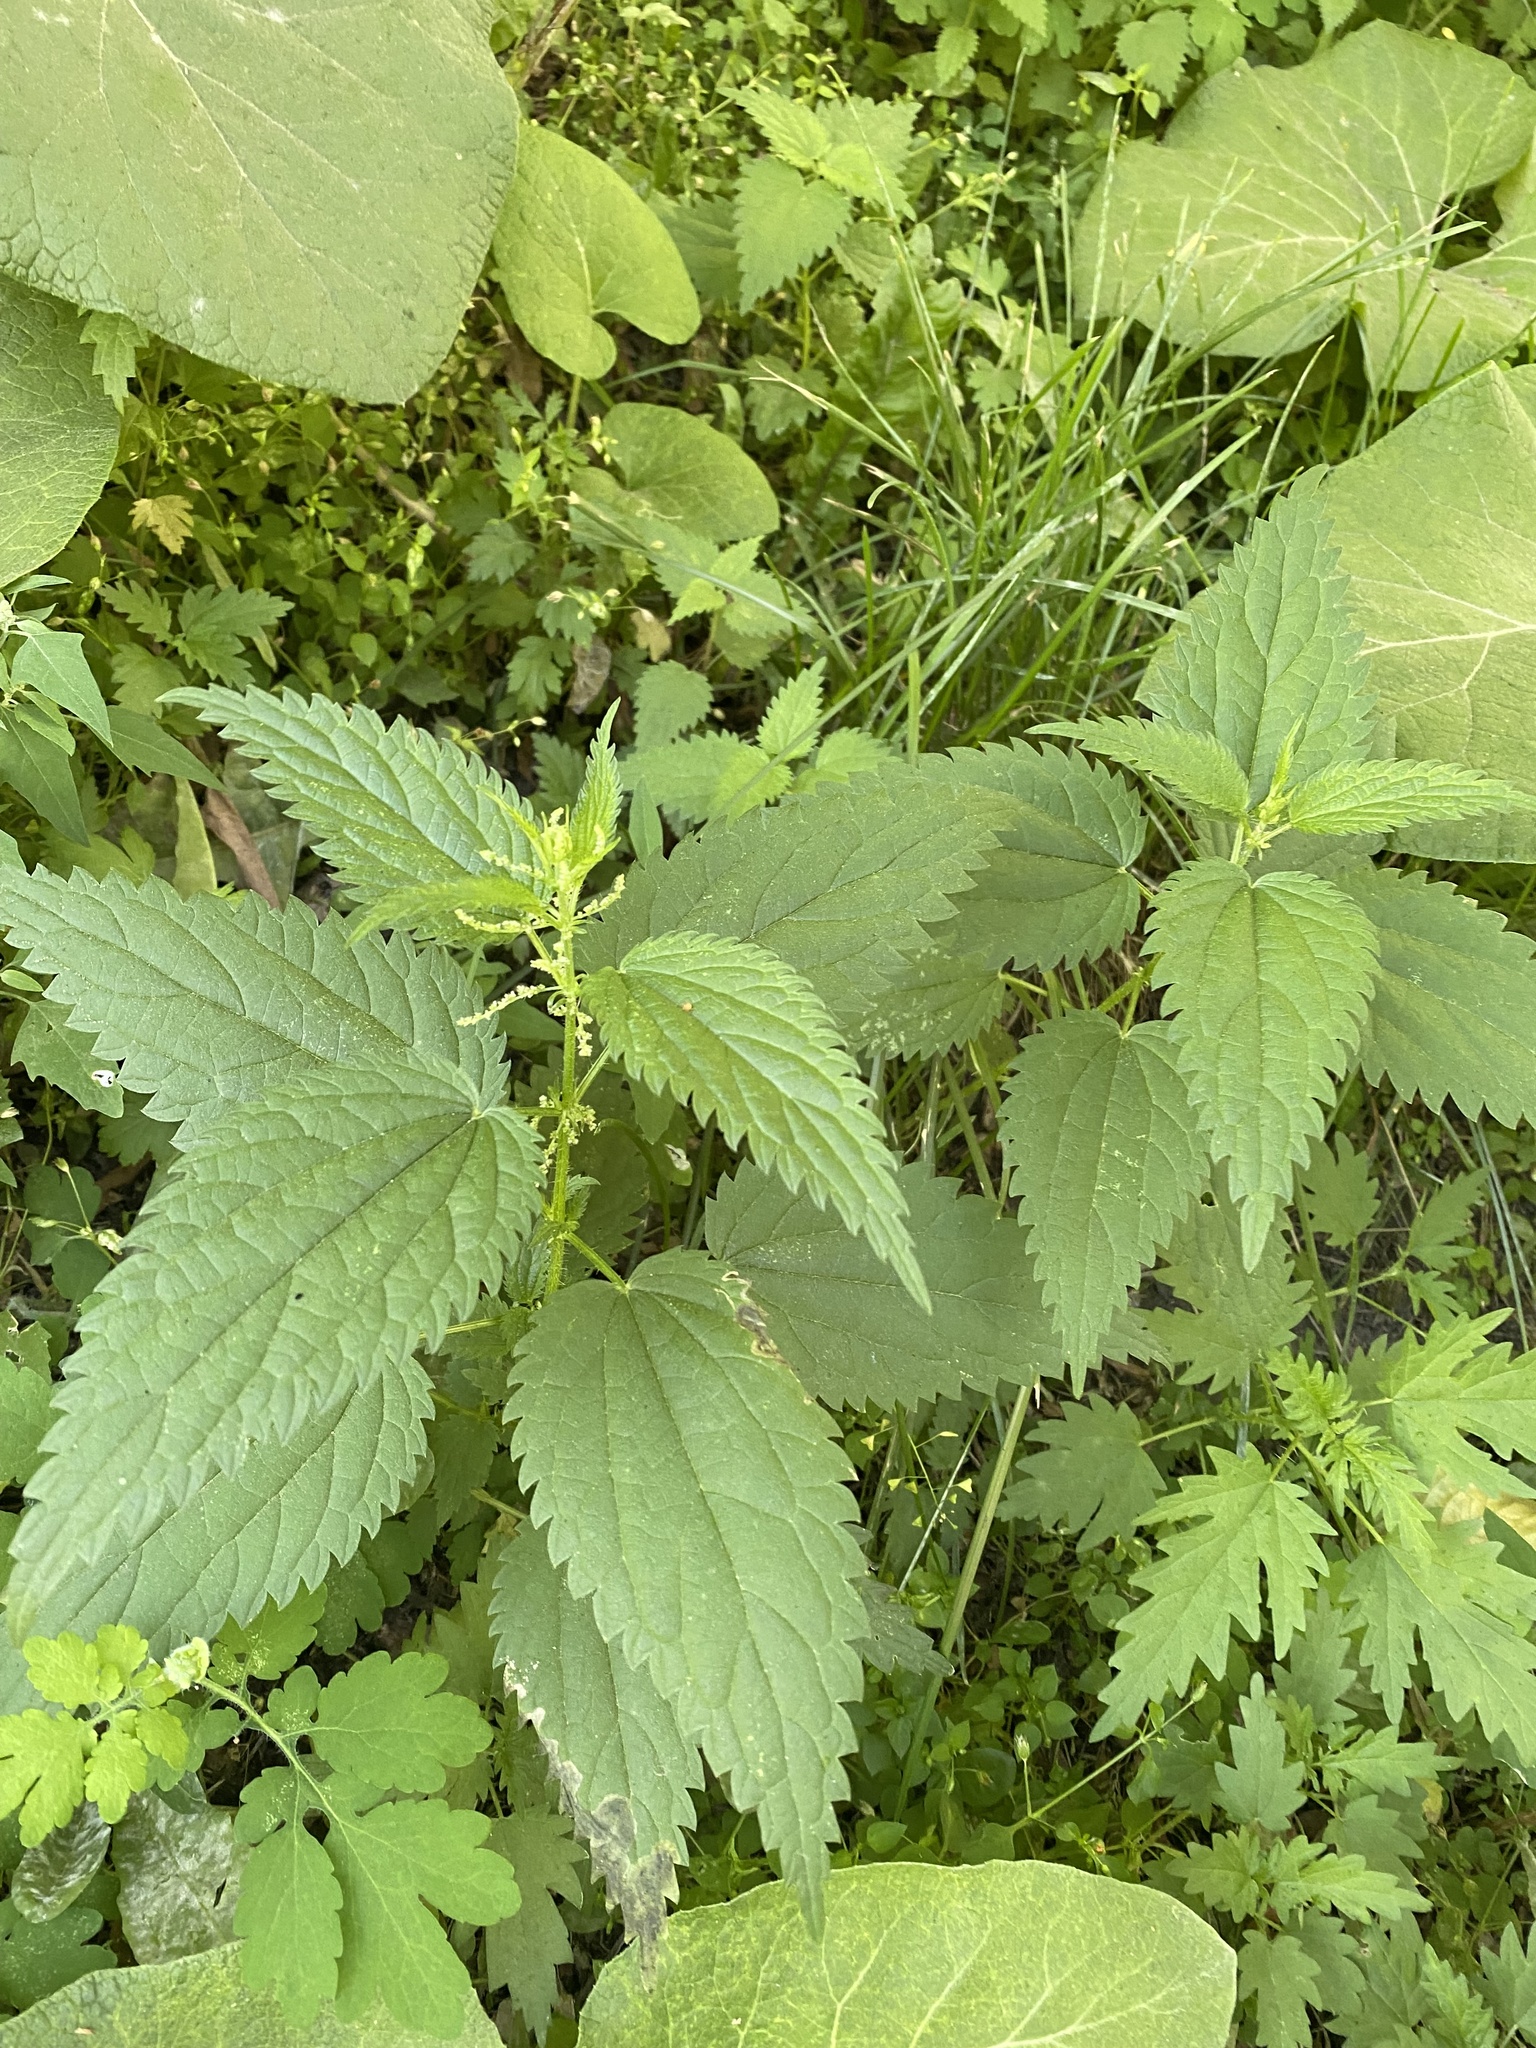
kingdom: Plantae
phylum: Tracheophyta
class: Magnoliopsida
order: Rosales
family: Urticaceae
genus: Urtica
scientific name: Urtica dioica
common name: Common nettle
